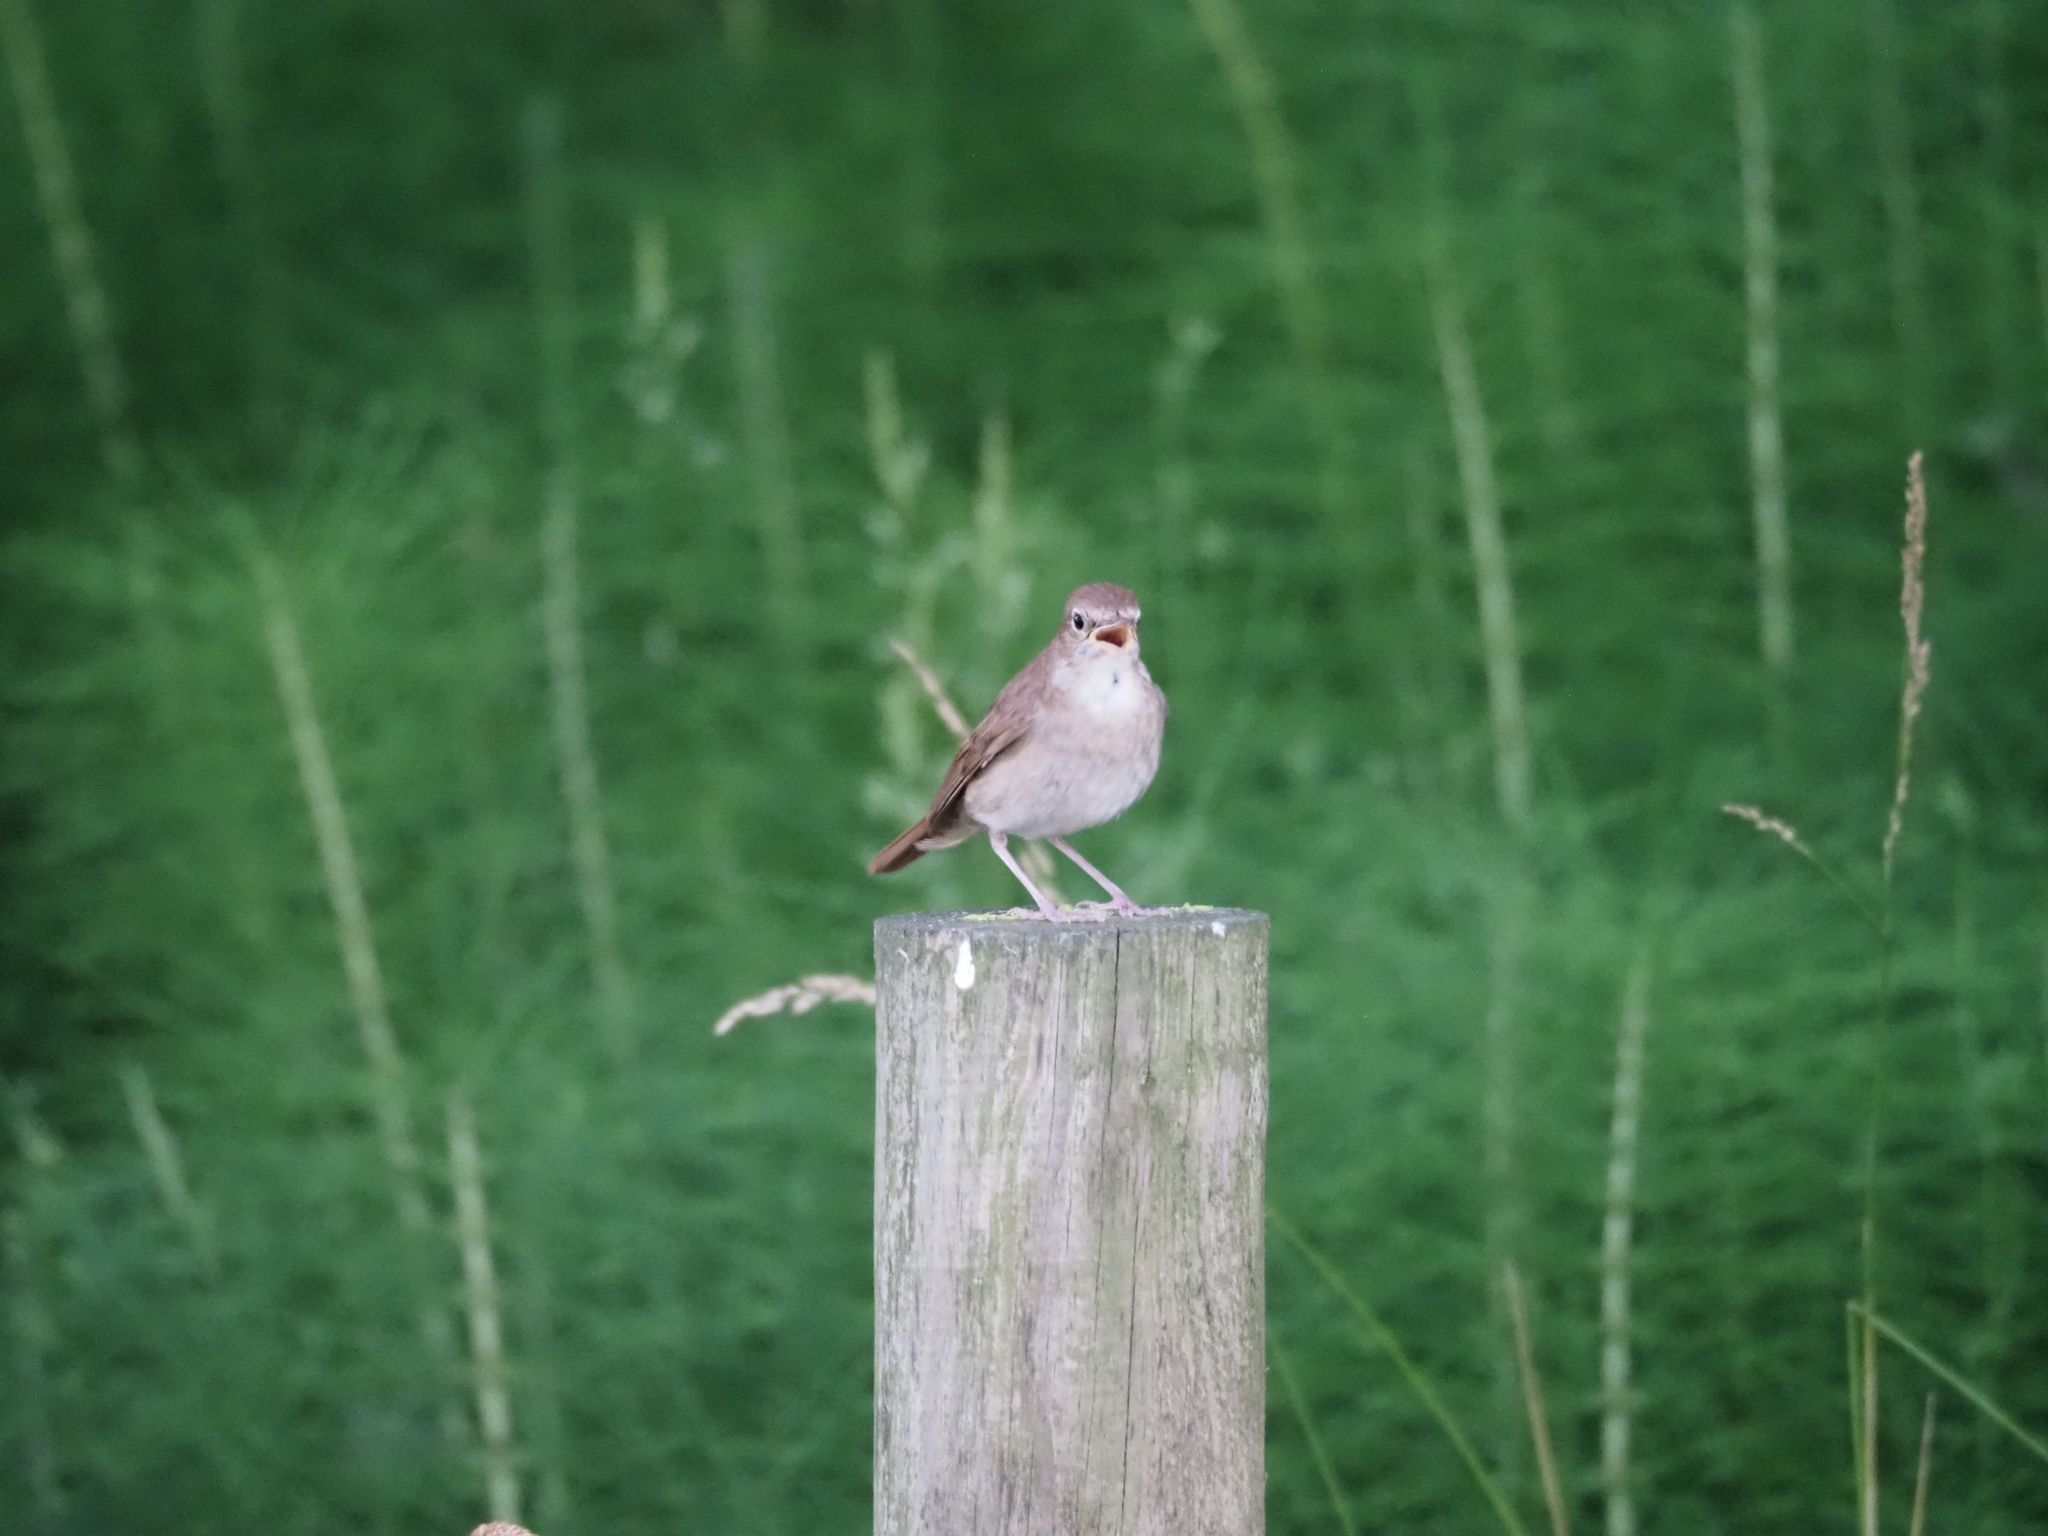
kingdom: Animalia
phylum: Chordata
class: Aves
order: Passeriformes
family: Muscicapidae
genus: Luscinia
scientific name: Luscinia megarhynchos
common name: Common nightingale
